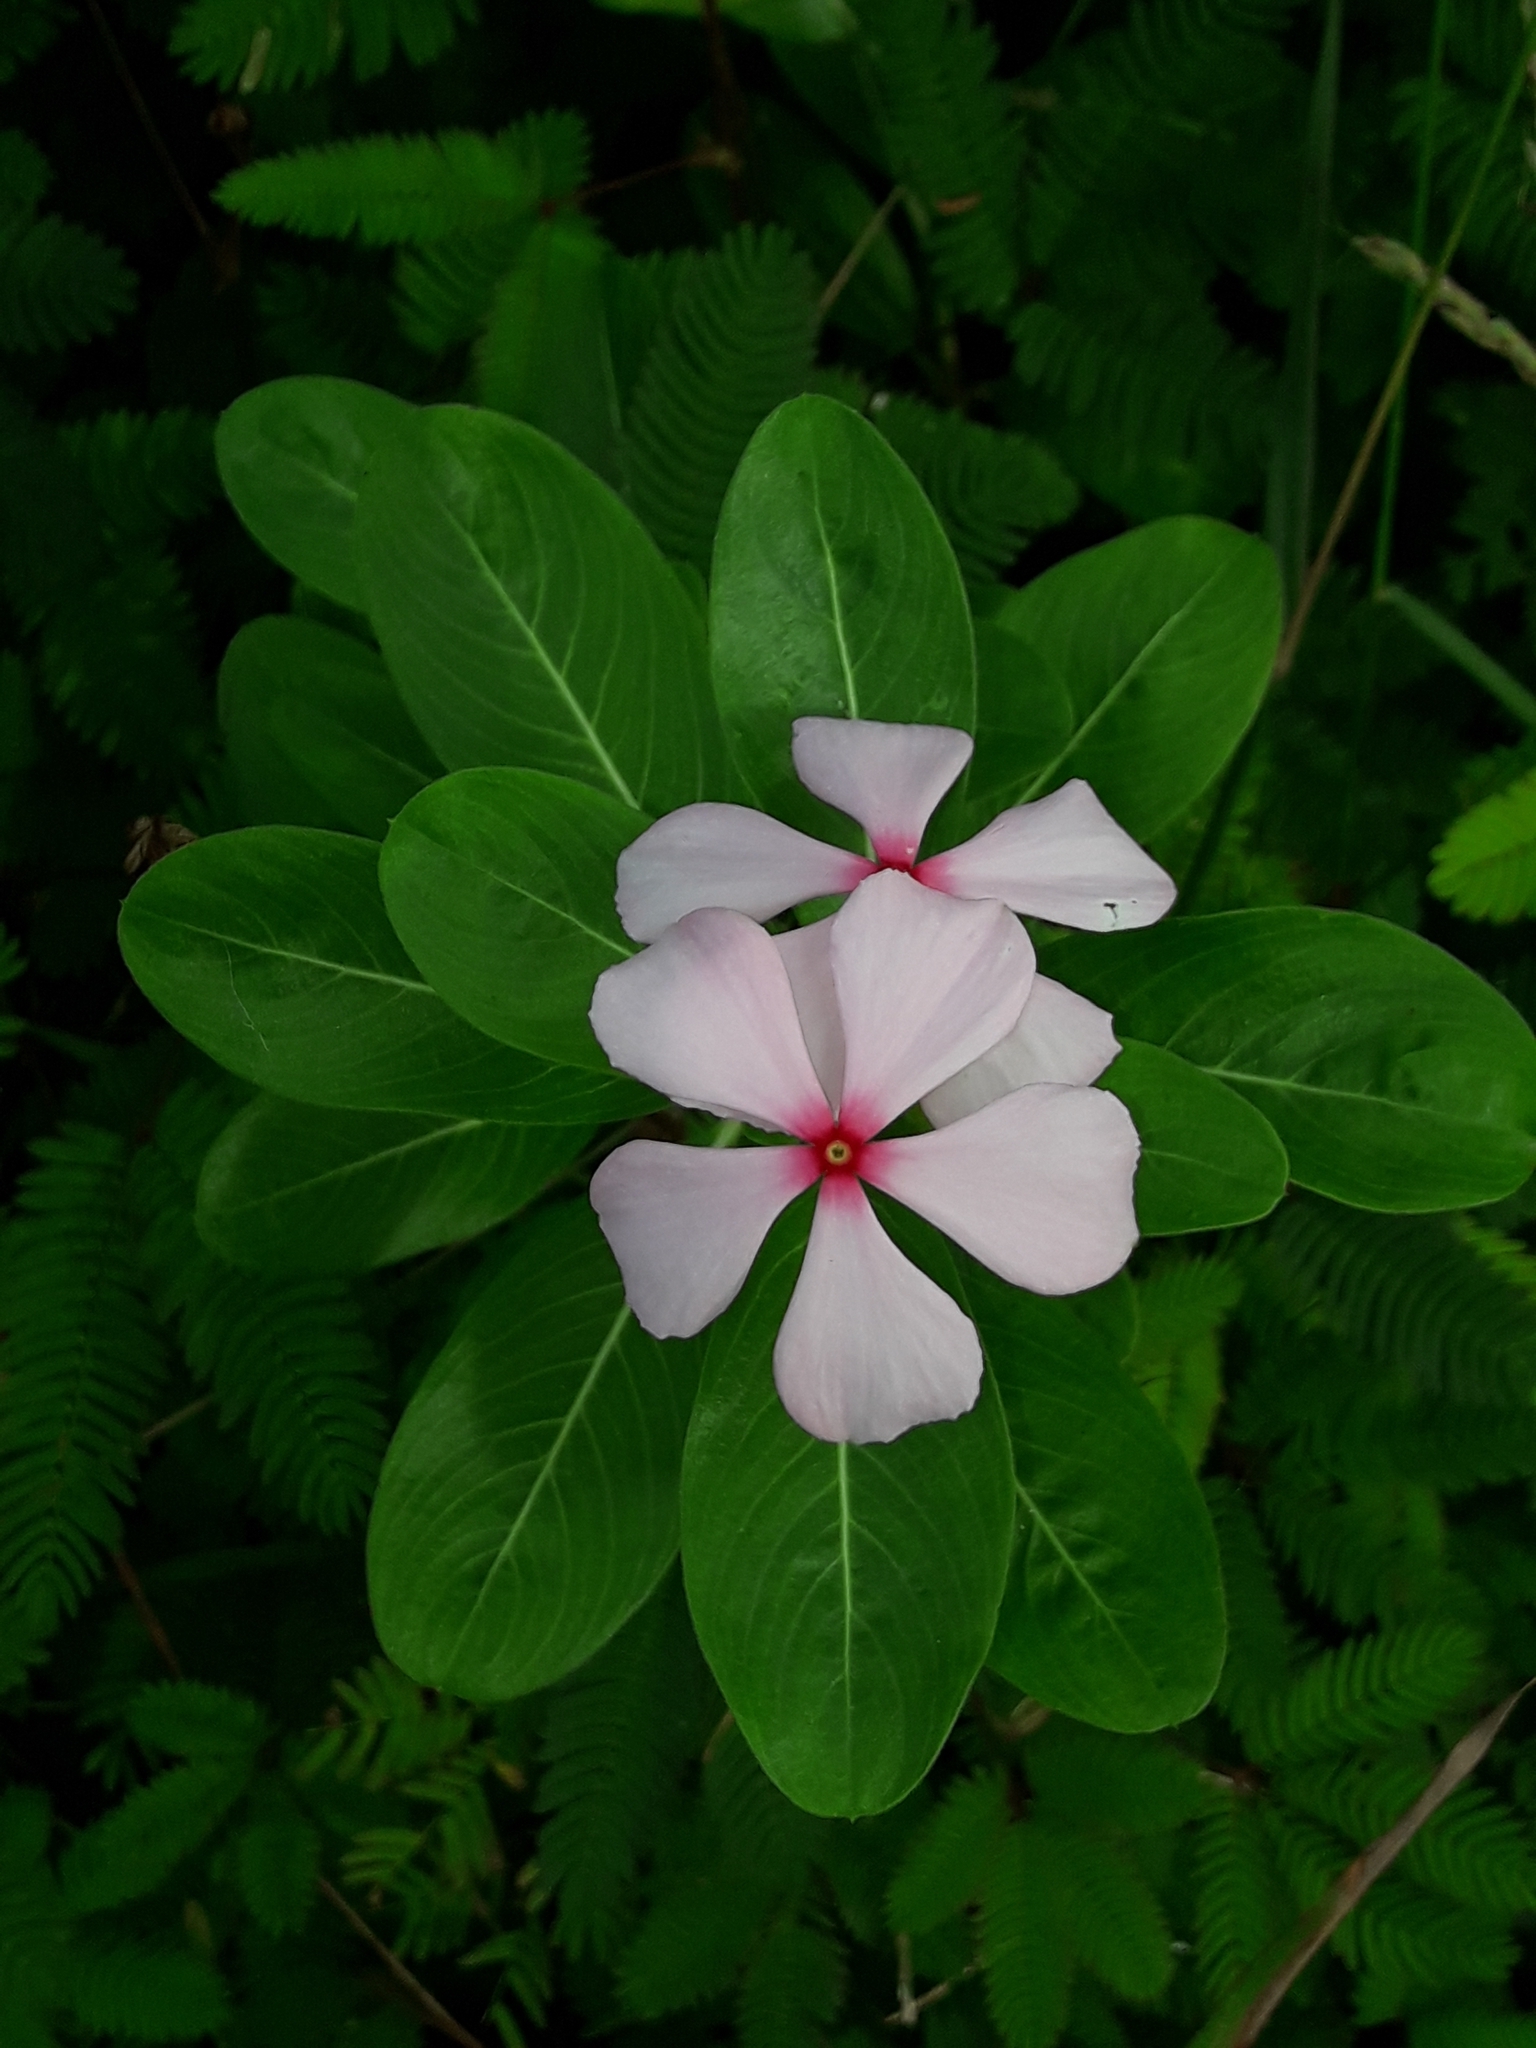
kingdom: Plantae
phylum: Tracheophyta
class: Magnoliopsida
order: Gentianales
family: Apocynaceae
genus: Catharanthus
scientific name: Catharanthus roseus
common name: Madagascar periwinkle
